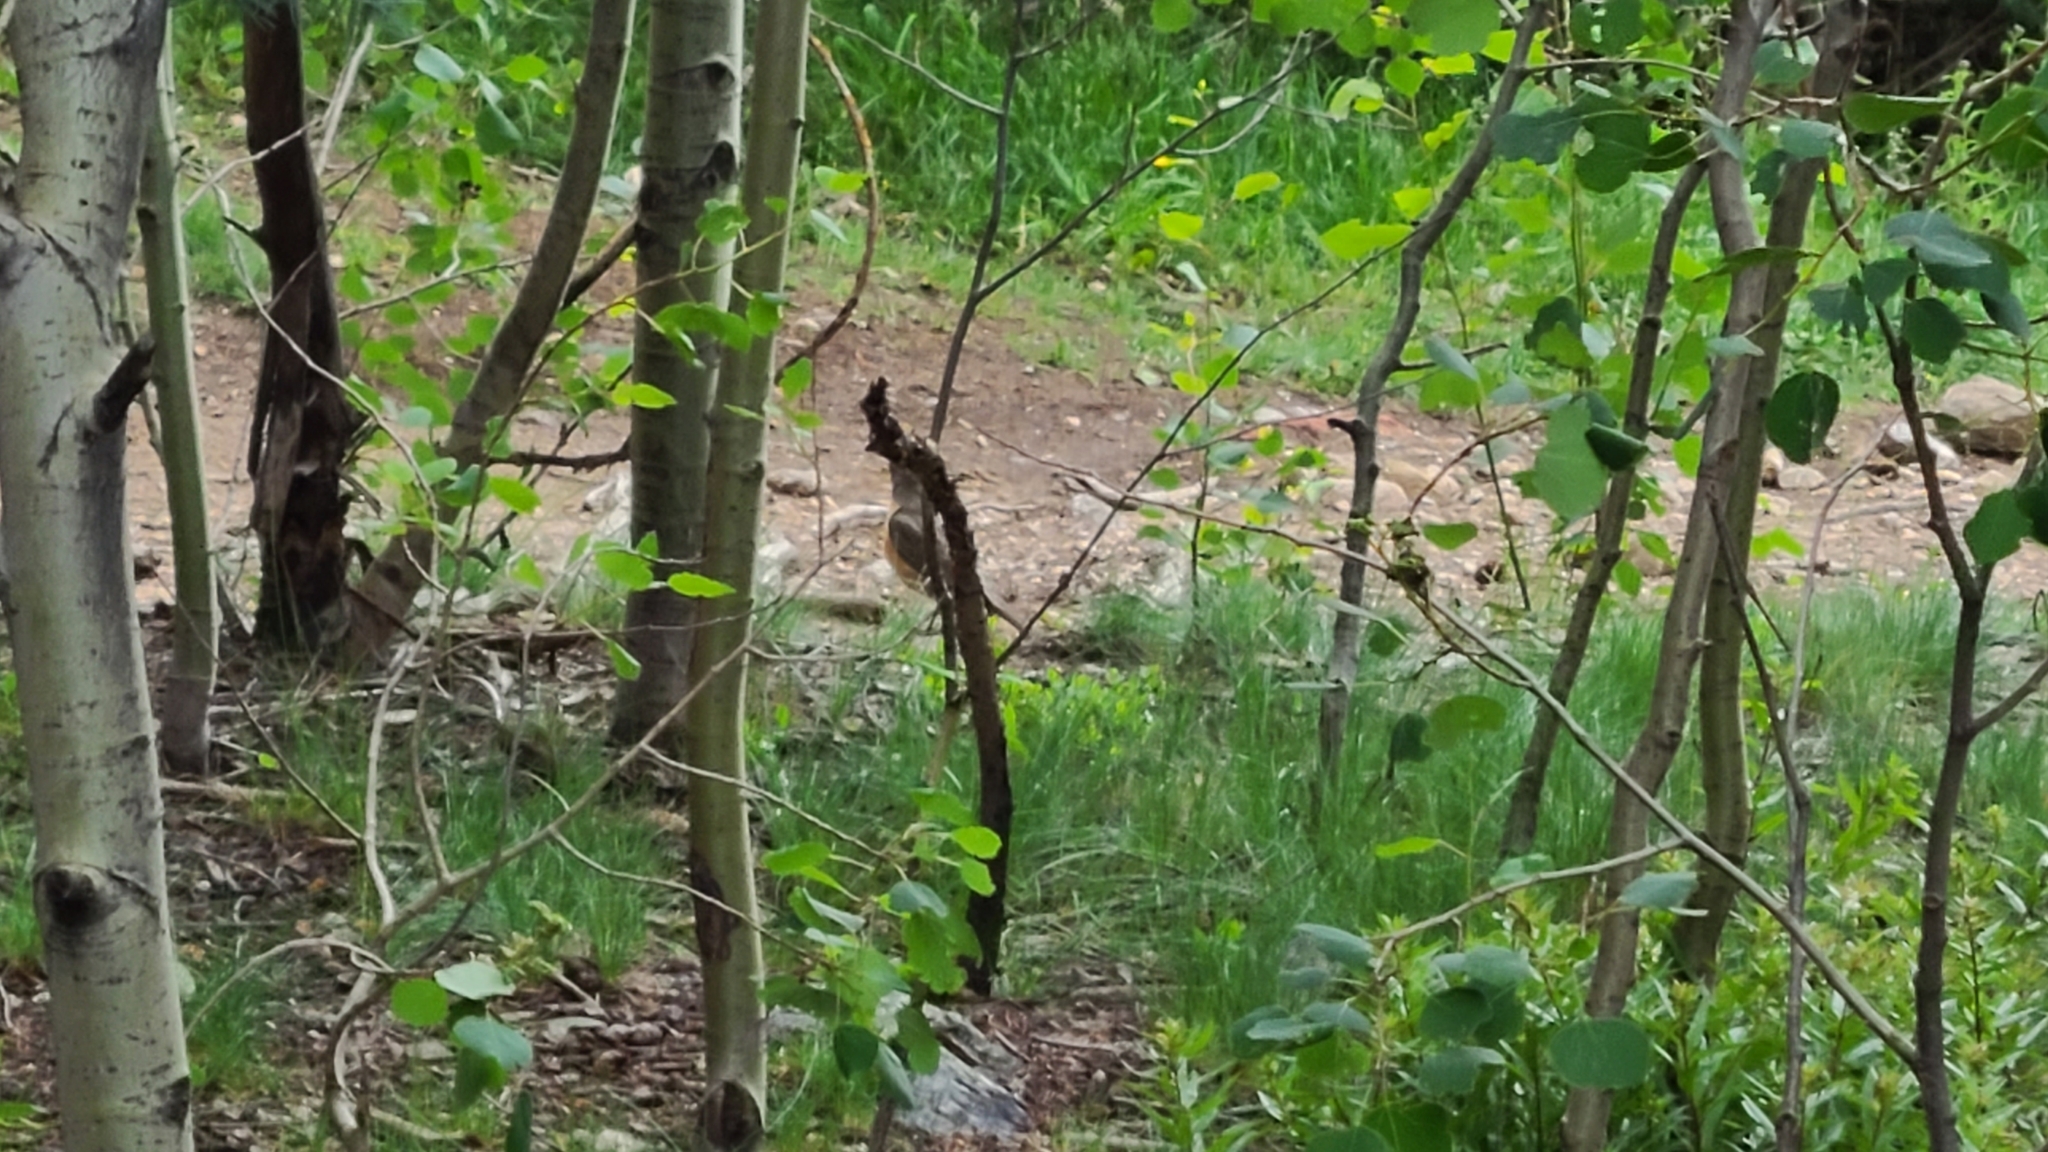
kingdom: Animalia
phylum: Chordata
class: Aves
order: Passeriformes
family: Turdidae
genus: Turdus
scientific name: Turdus migratorius
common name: American robin
